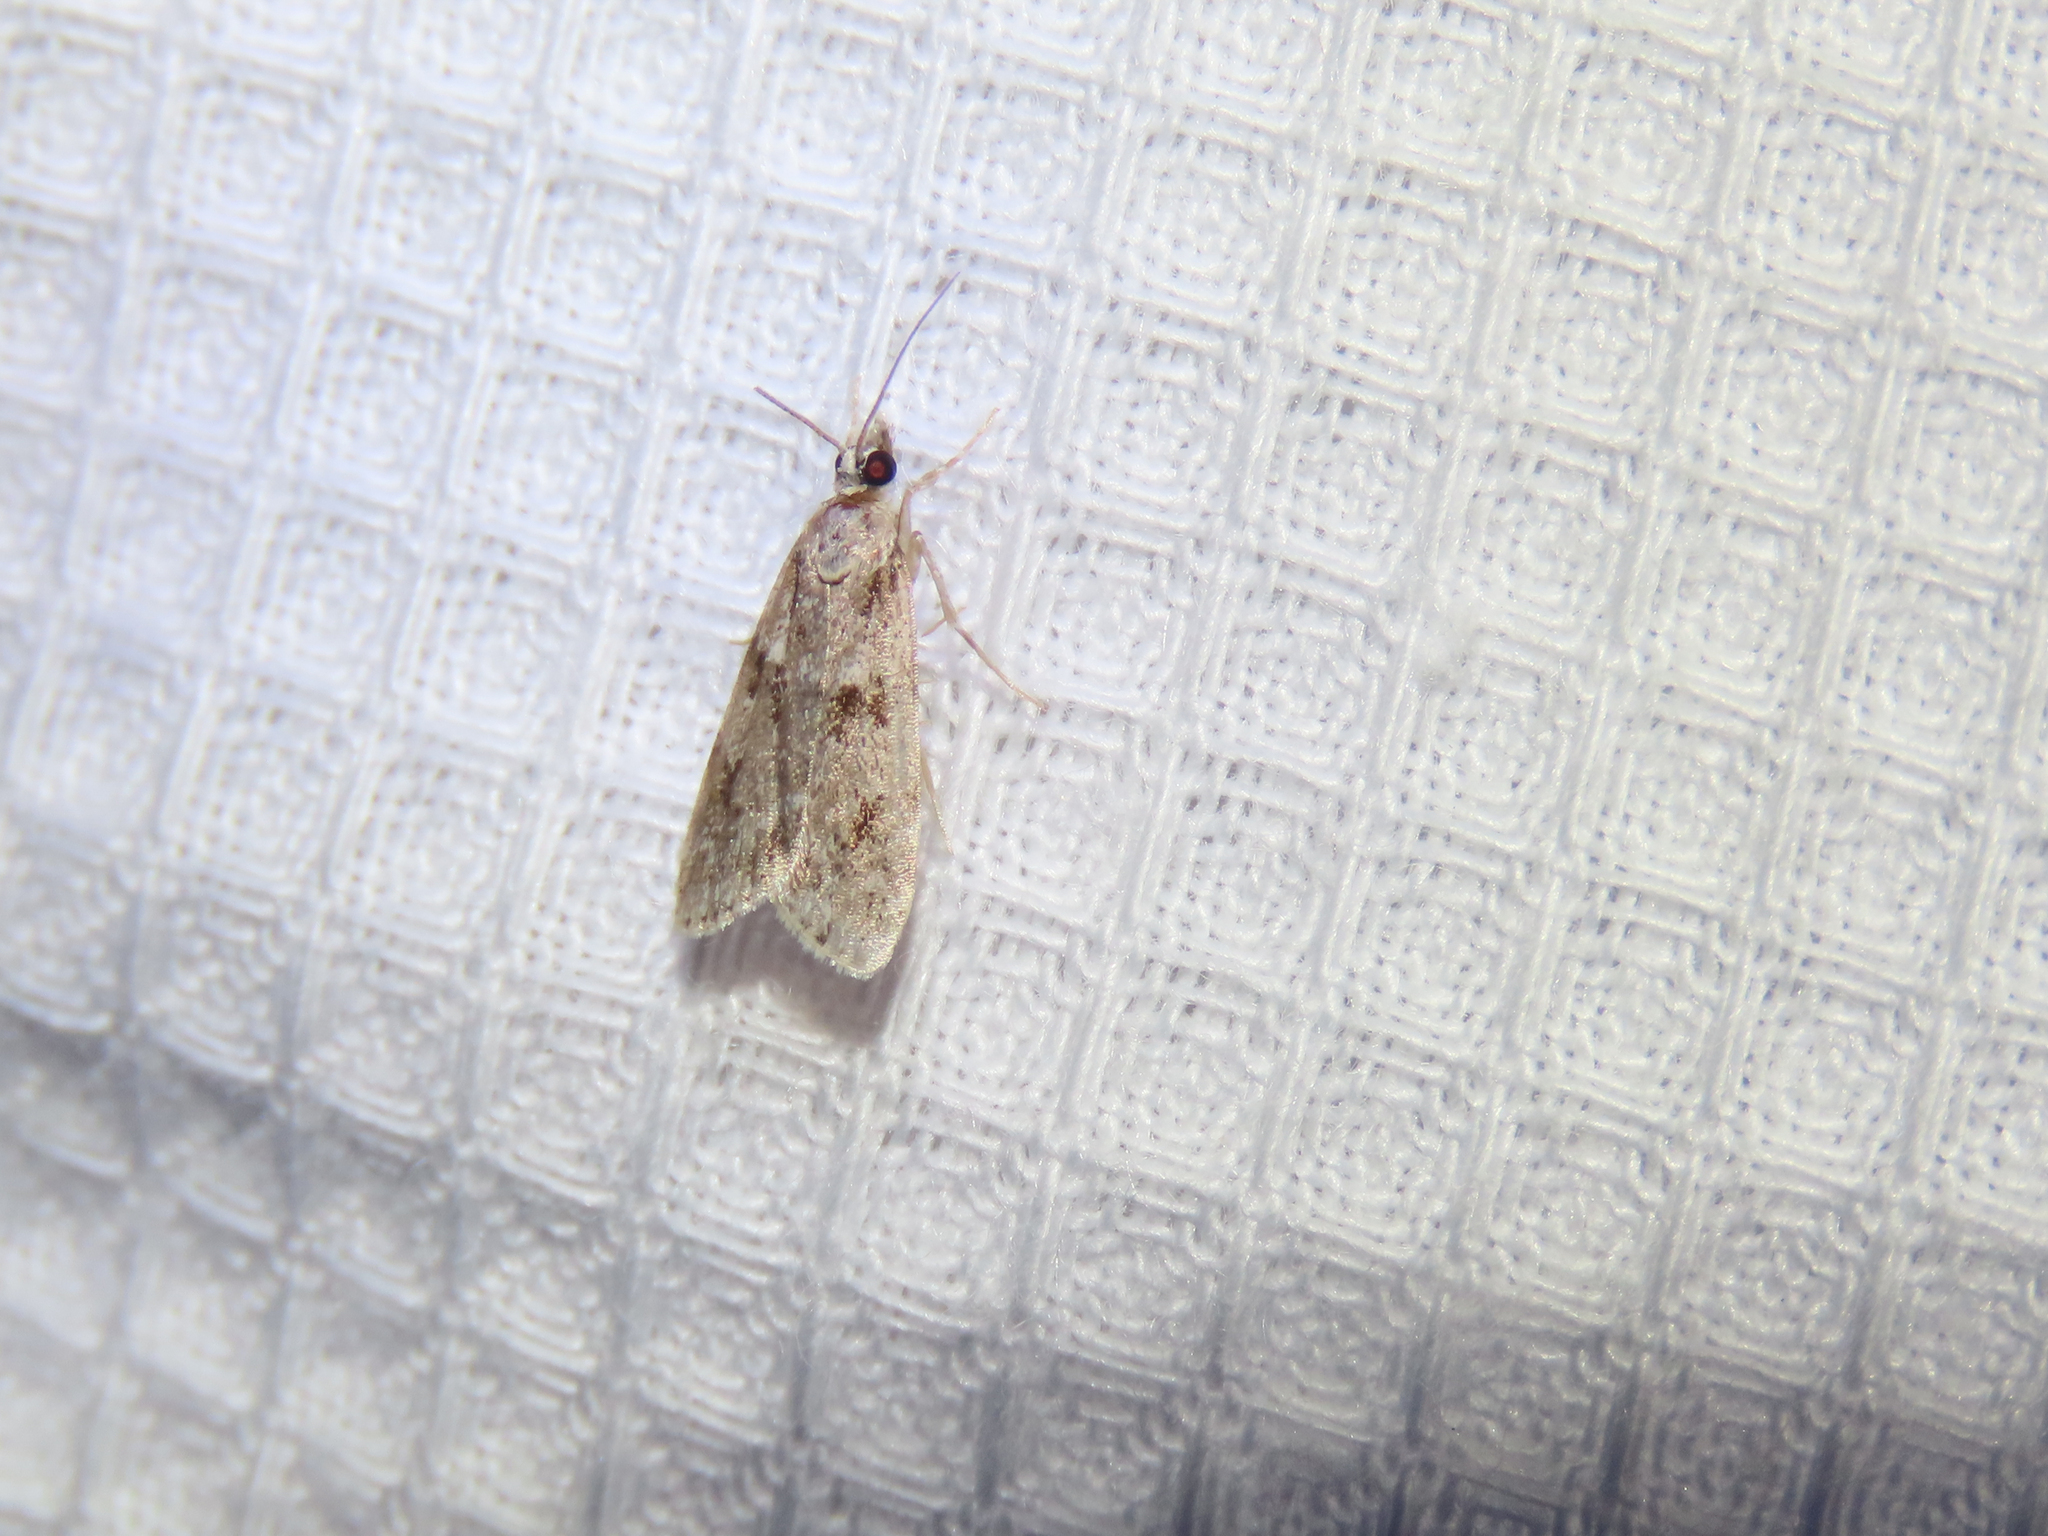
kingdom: Animalia
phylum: Arthropoda
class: Insecta
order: Lepidoptera
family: Crambidae
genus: Scoparia
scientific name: Scoparia biplagialis
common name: Double-striped scoparia moth
